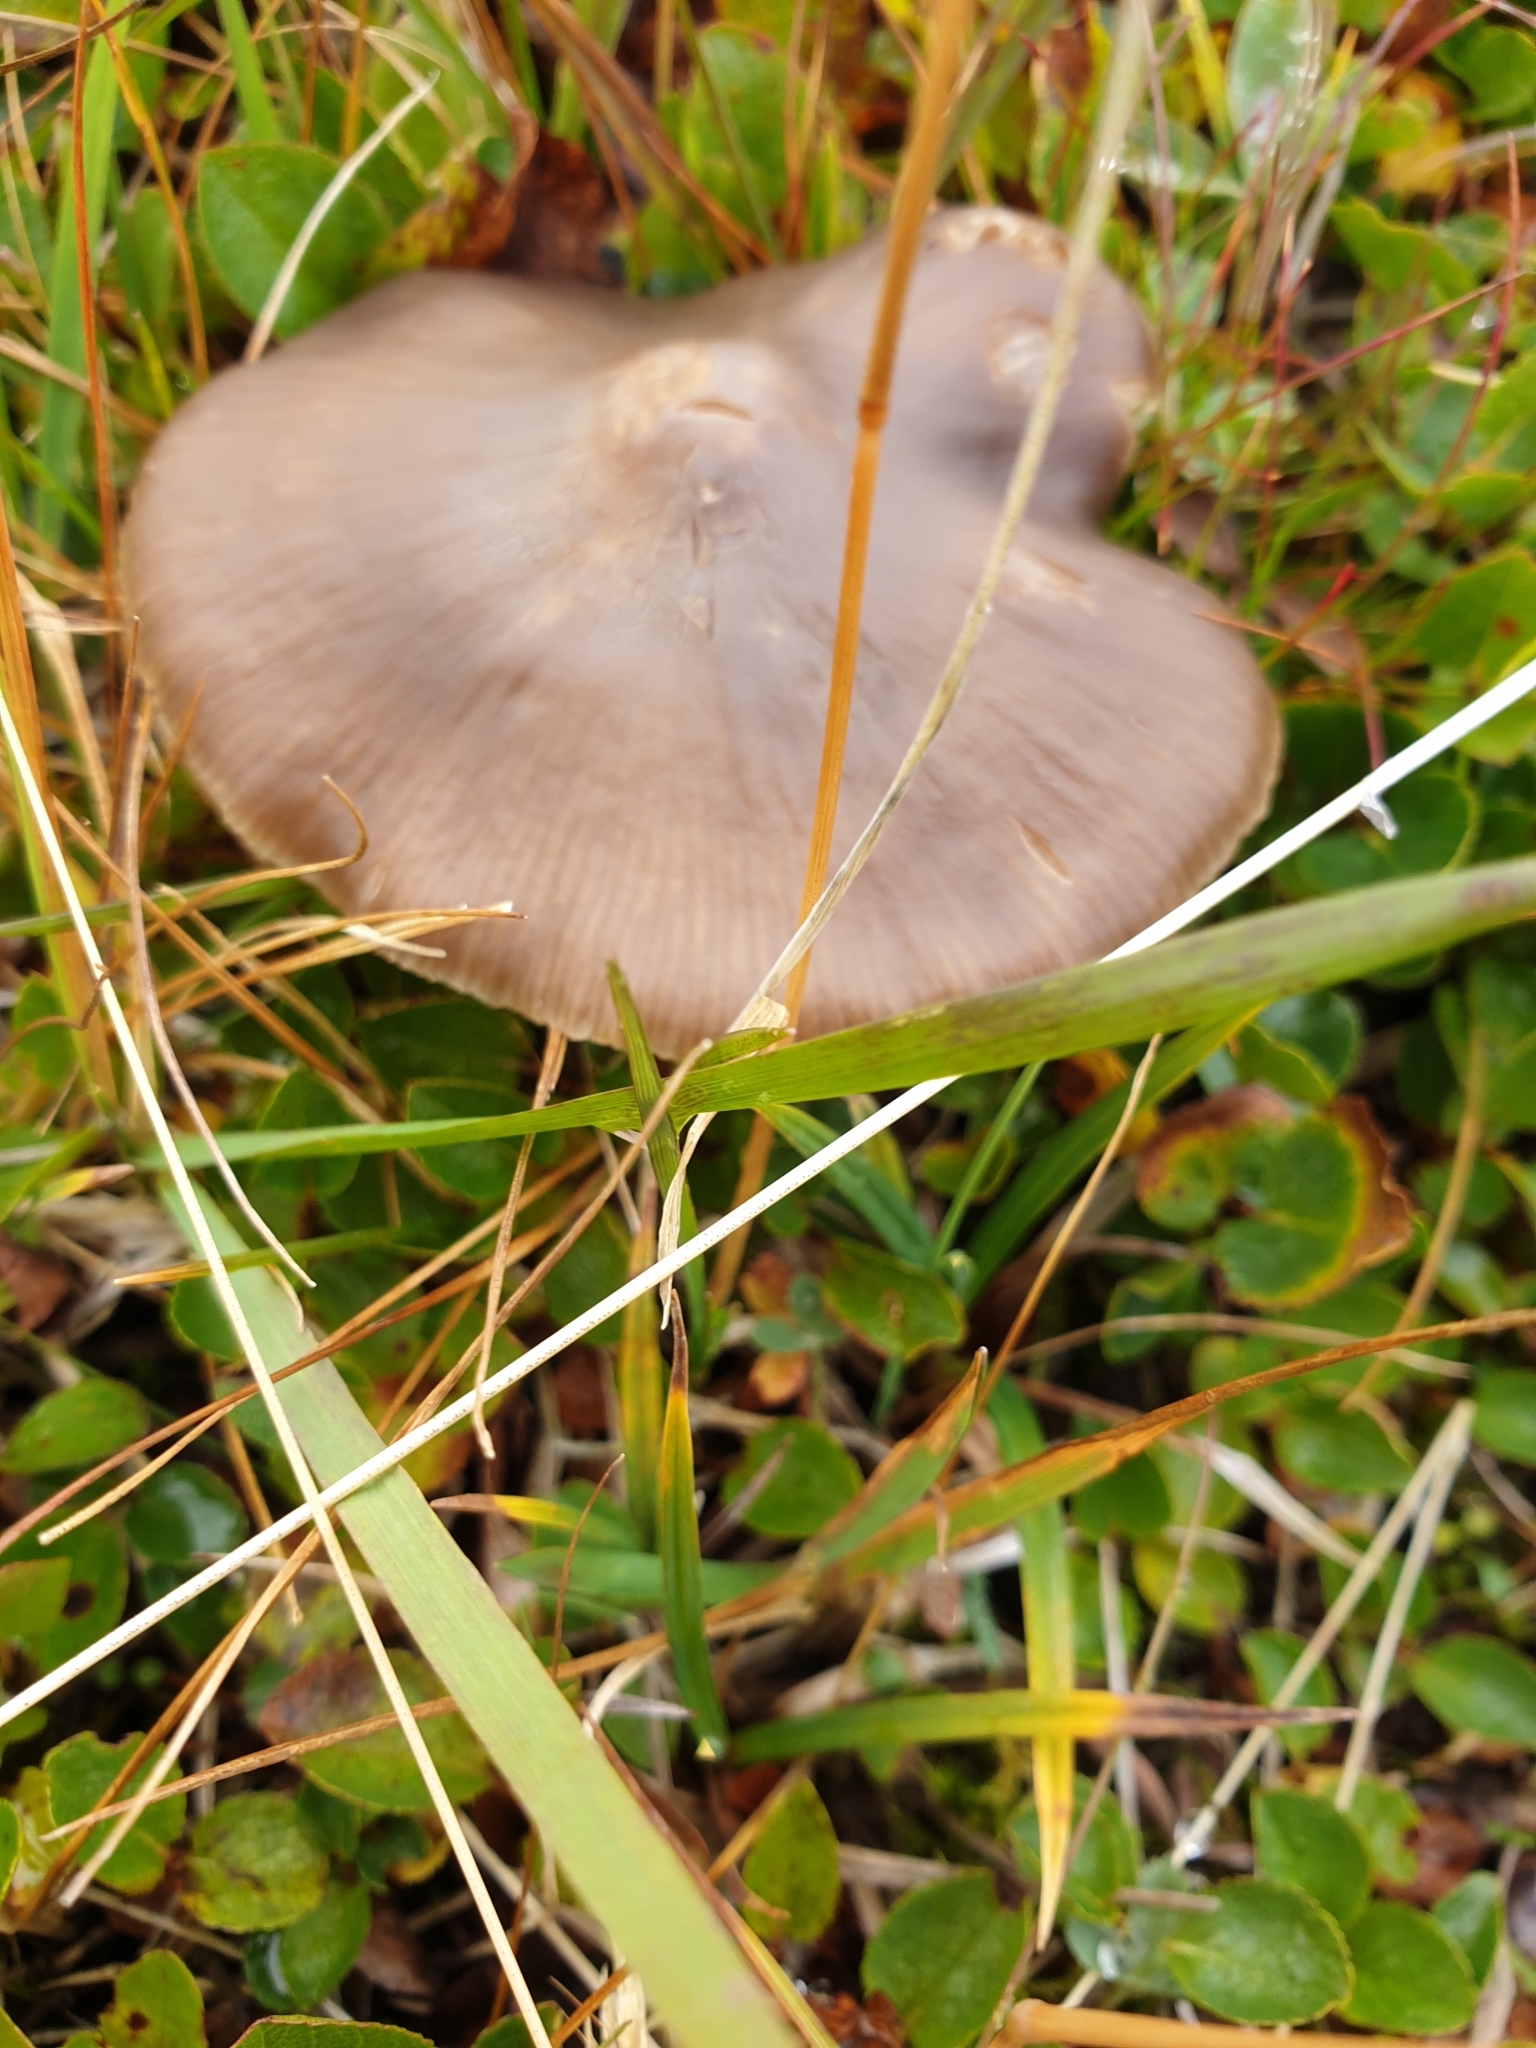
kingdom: Fungi
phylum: Basidiomycota
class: Agaricomycetes
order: Agaricales
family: Tricholomataceae
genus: Megacollybia
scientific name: Megacollybia platyphylla
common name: Whitelaced shank
